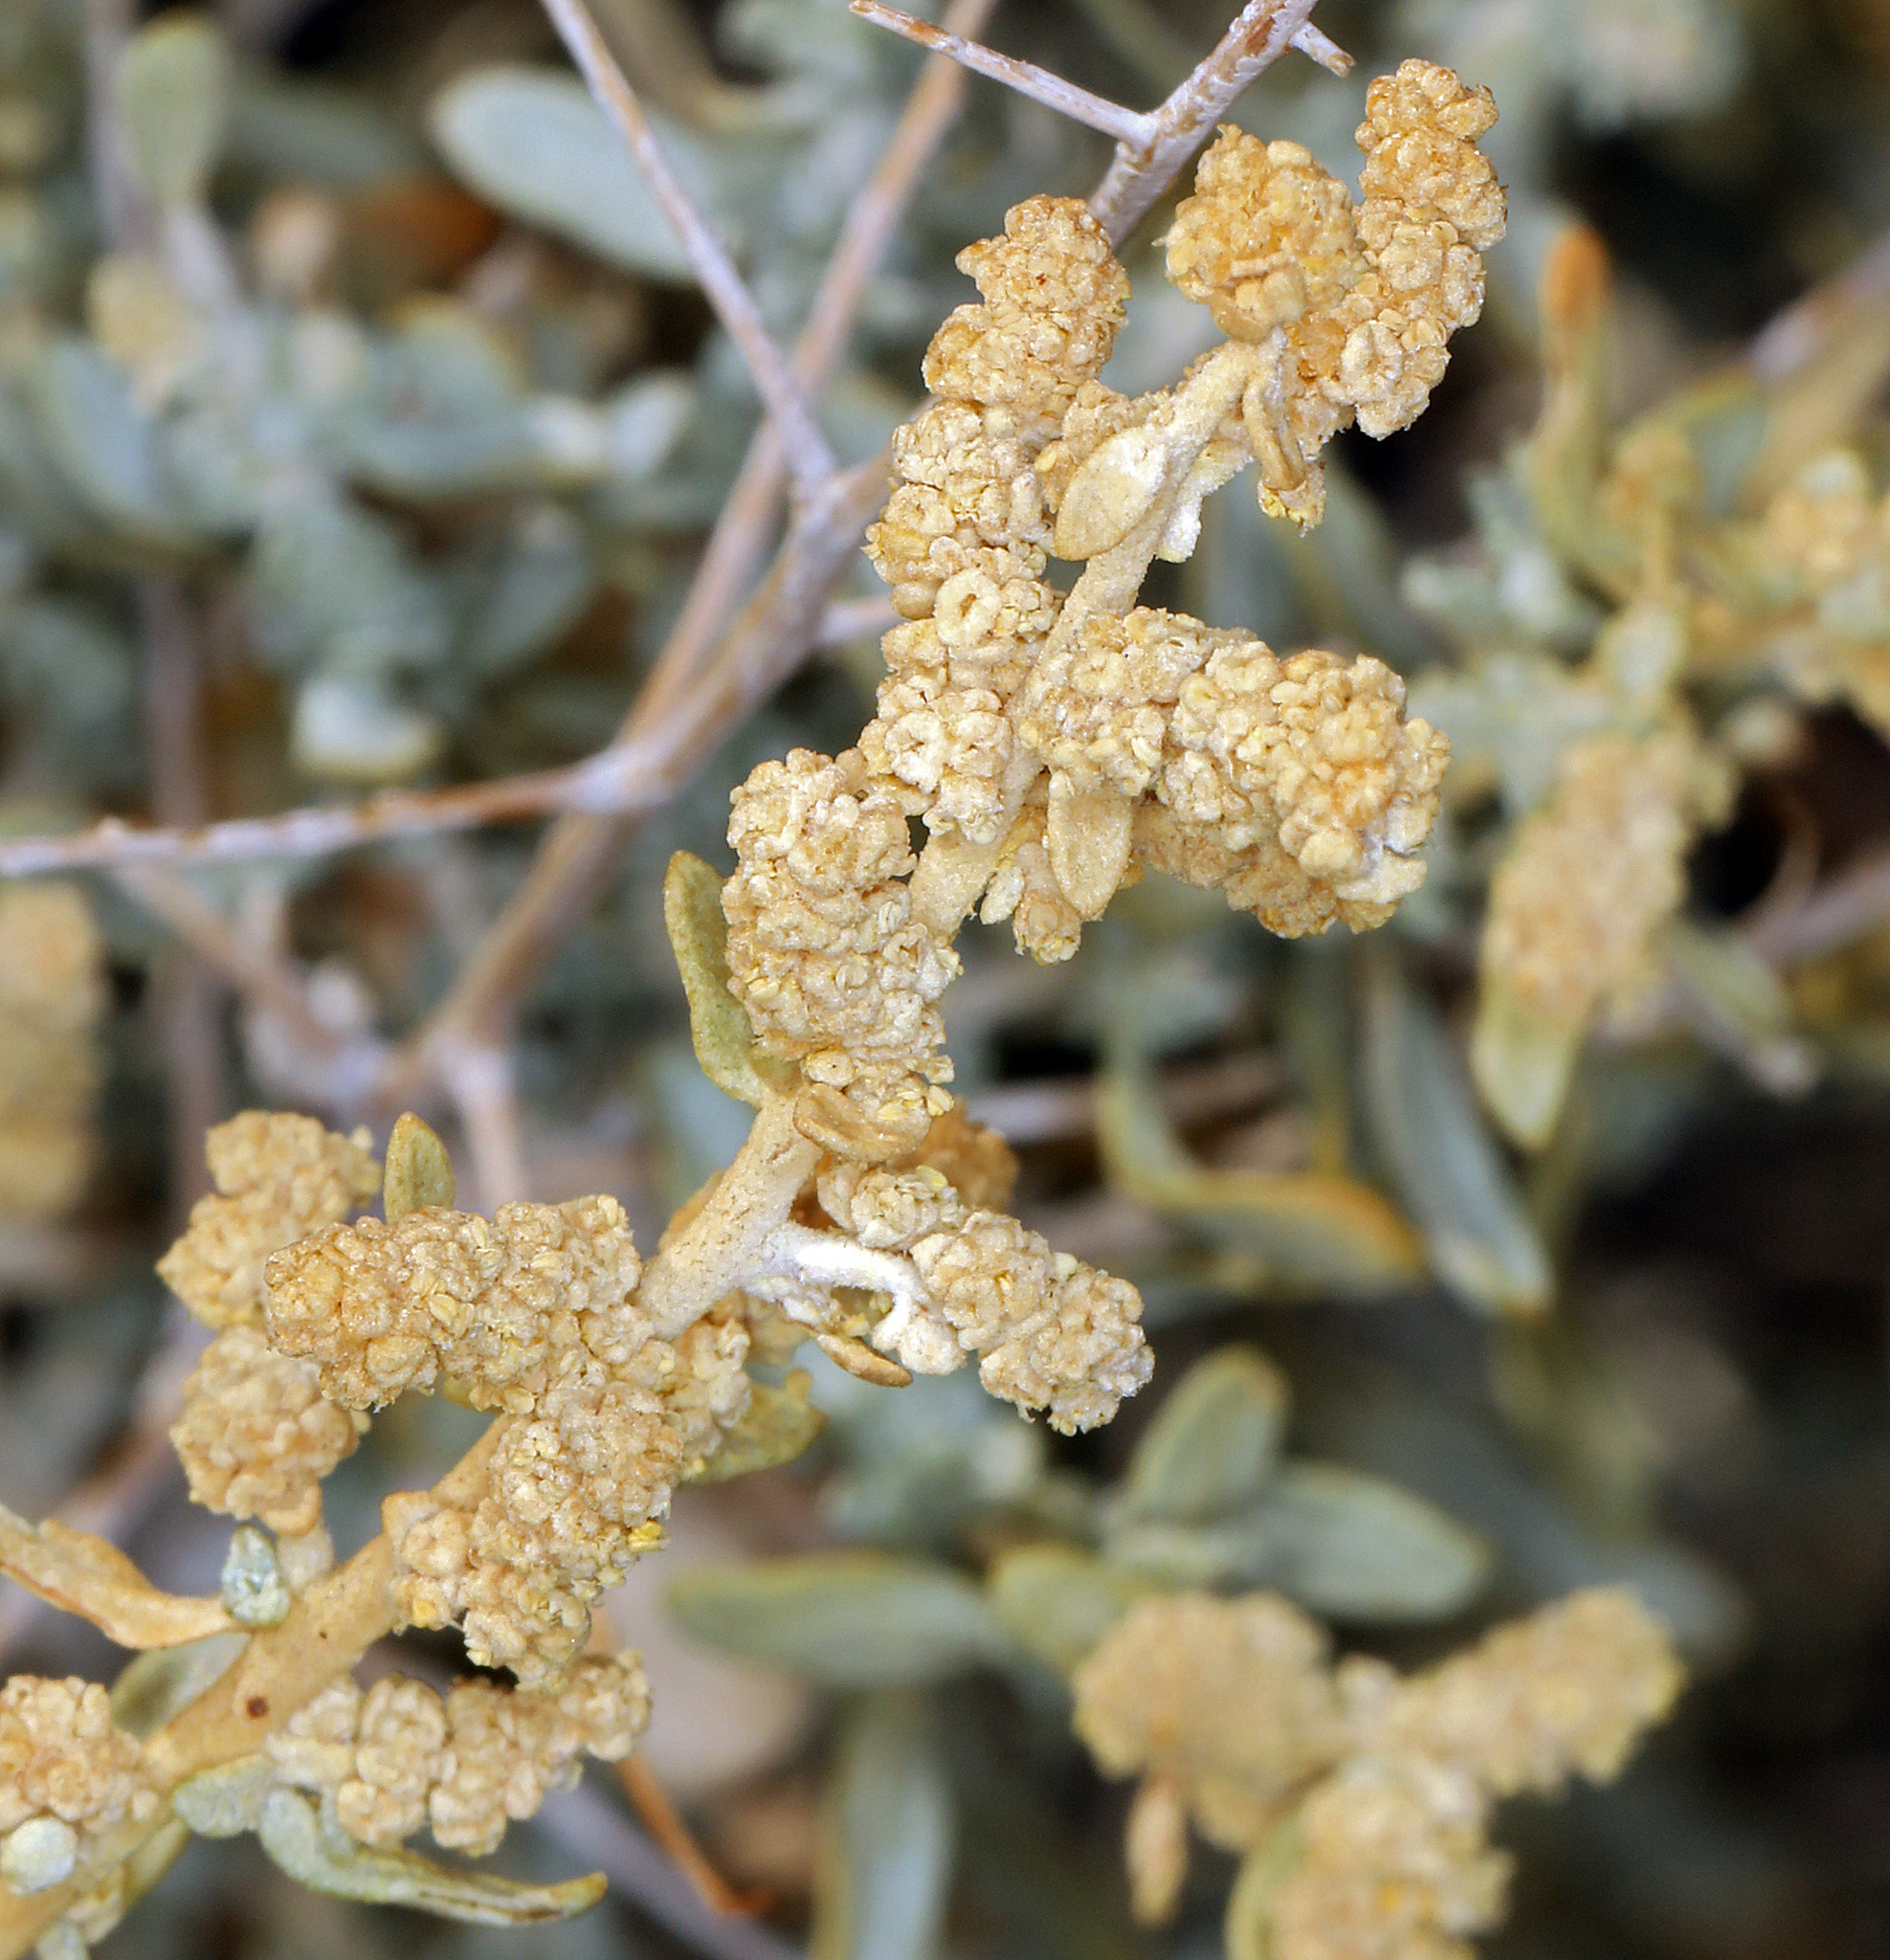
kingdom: Plantae
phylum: Tracheophyta
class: Magnoliopsida
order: Caryophyllales
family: Amaranthaceae
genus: Atriplex
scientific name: Atriplex polycarpa
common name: Desert saltbush
